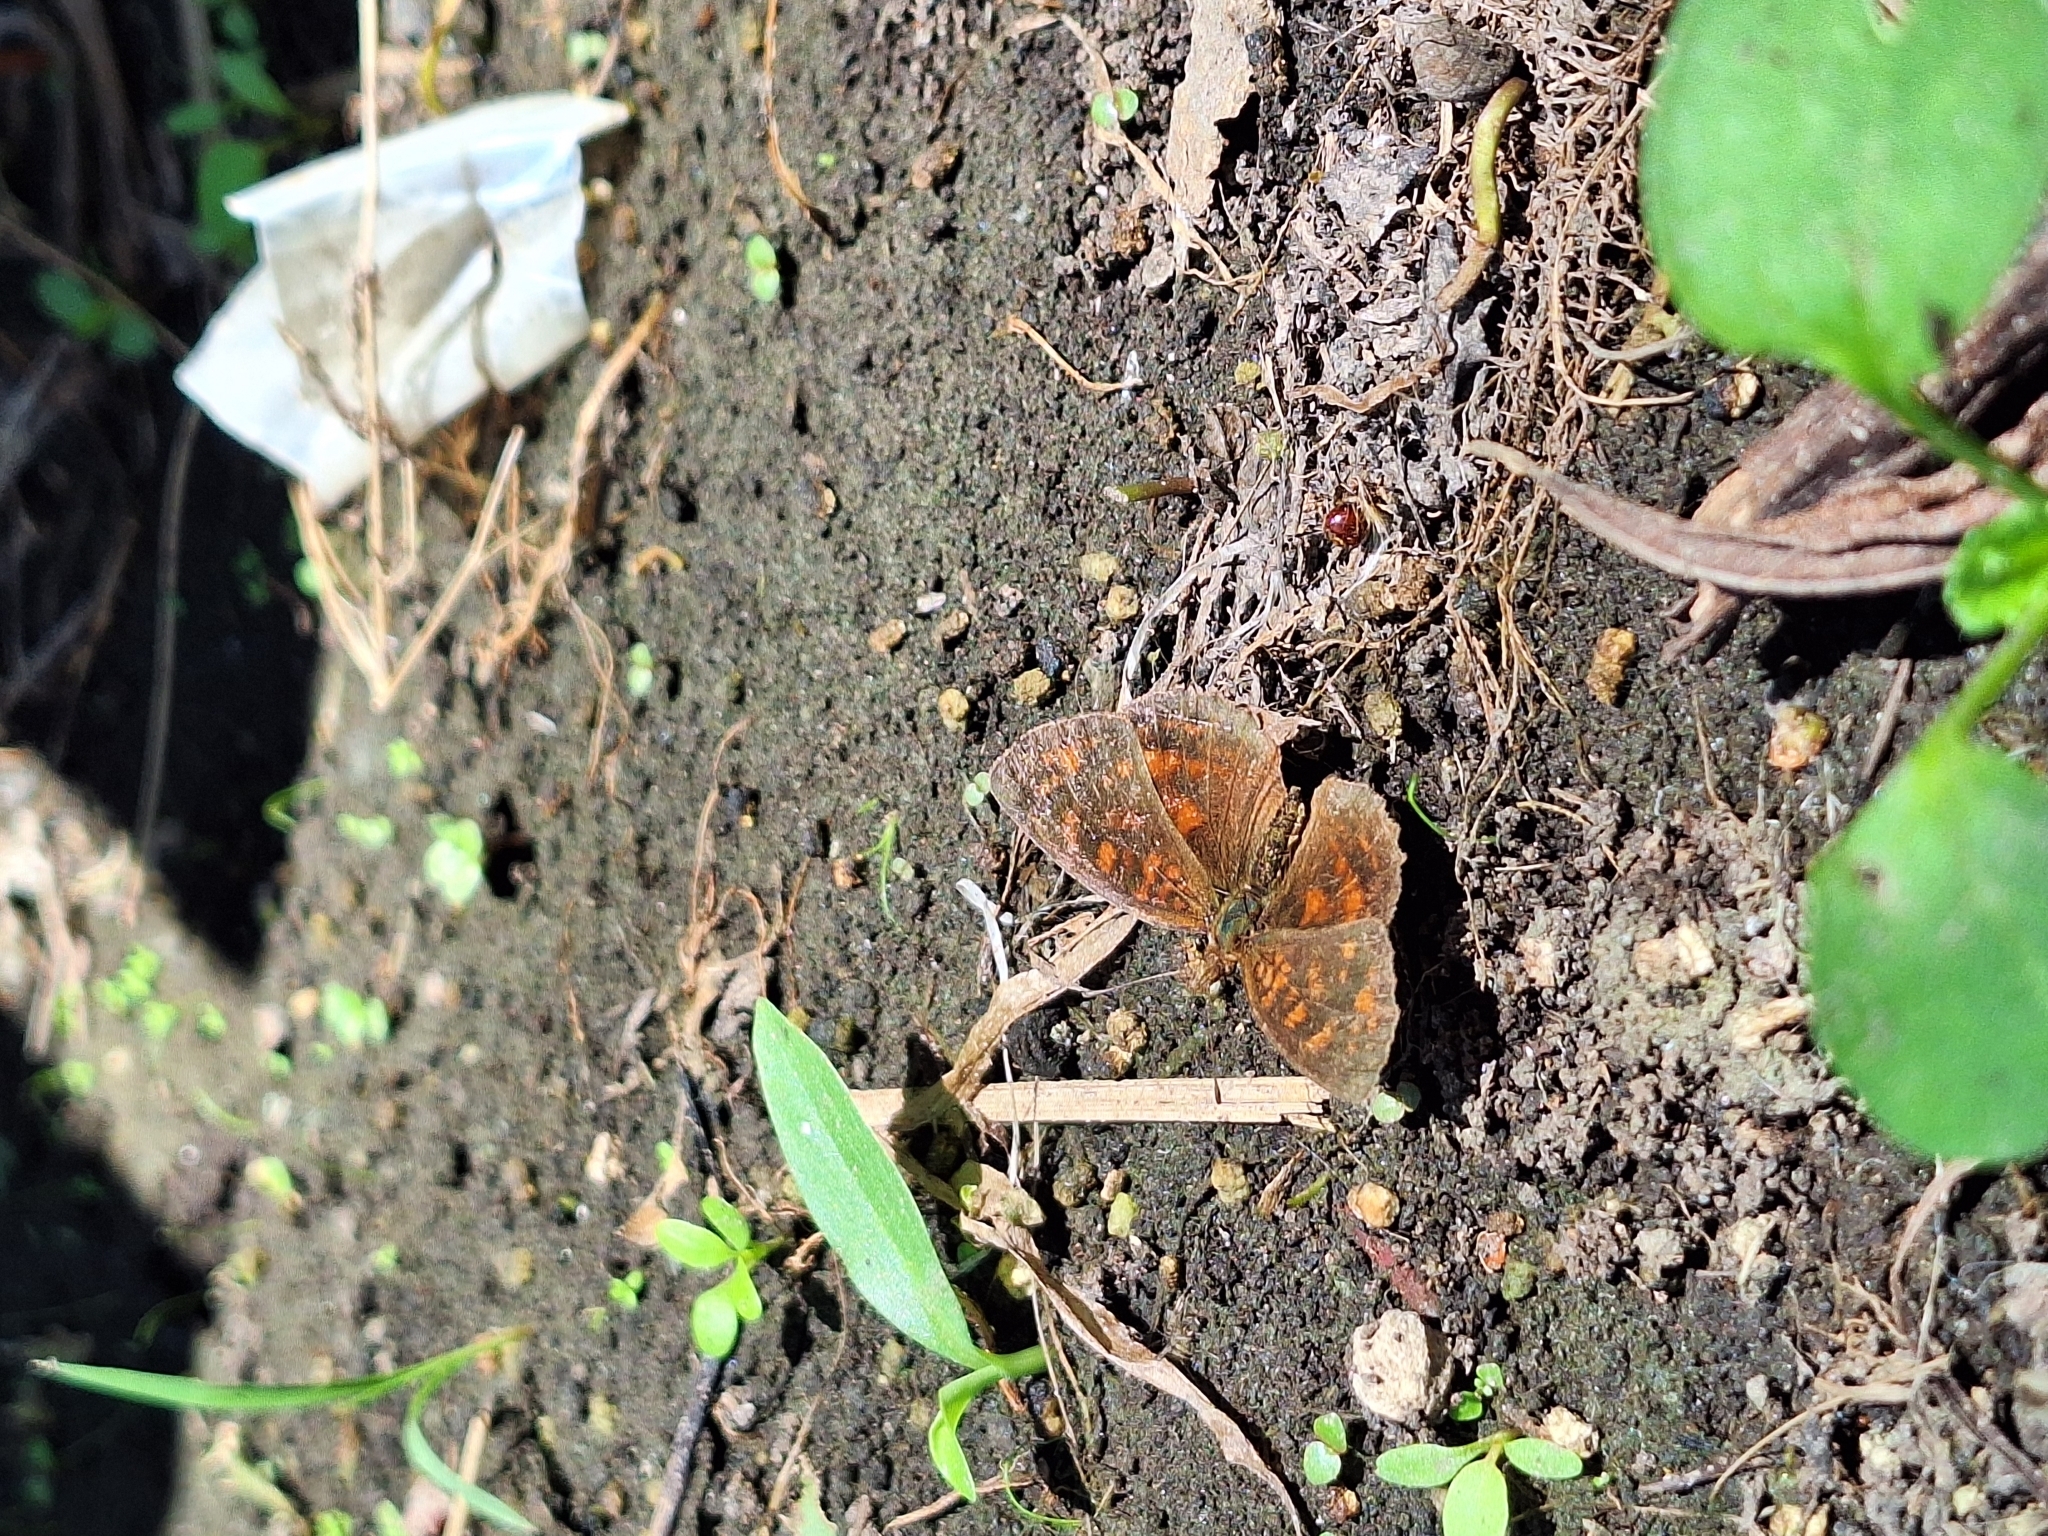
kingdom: Animalia
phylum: Arthropoda
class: Insecta
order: Lepidoptera
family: Nymphalidae
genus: Ortilia
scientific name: Ortilia velica
